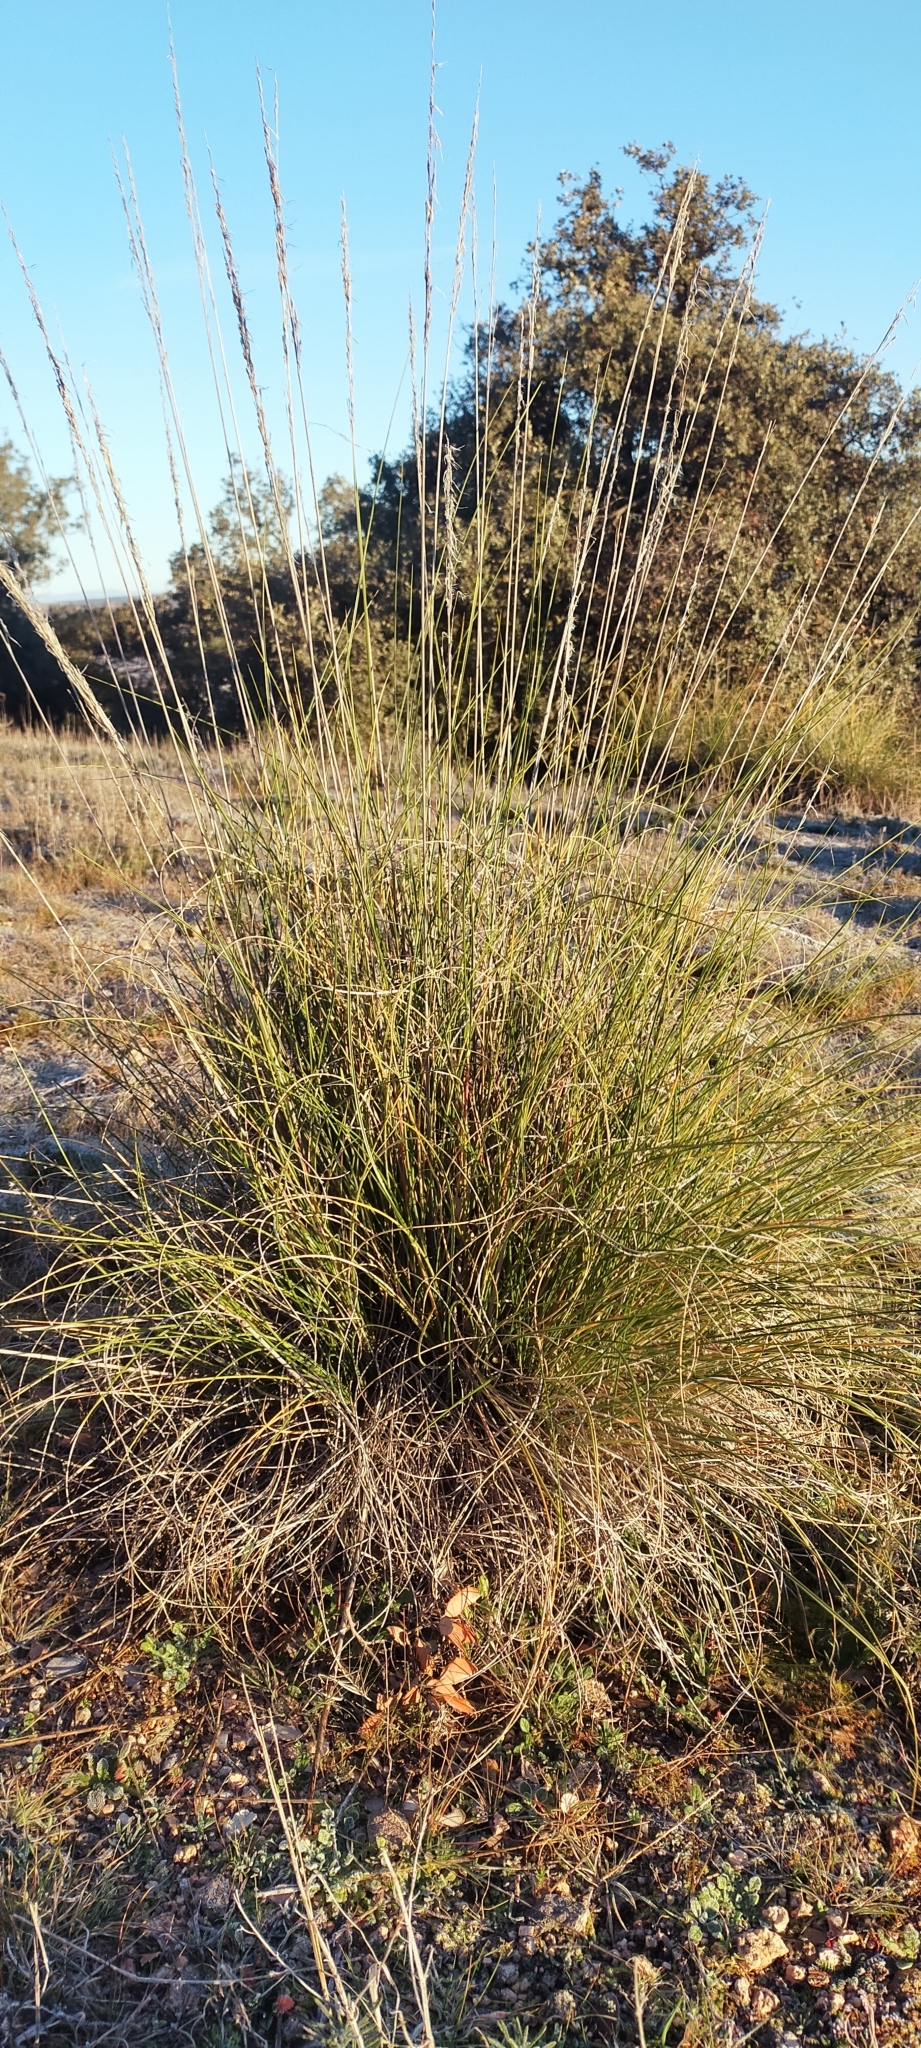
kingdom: Plantae
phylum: Tracheophyta
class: Liliopsida
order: Poales
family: Poaceae
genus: Macrochloa
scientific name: Macrochloa tenacissima
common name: Alfa grass
